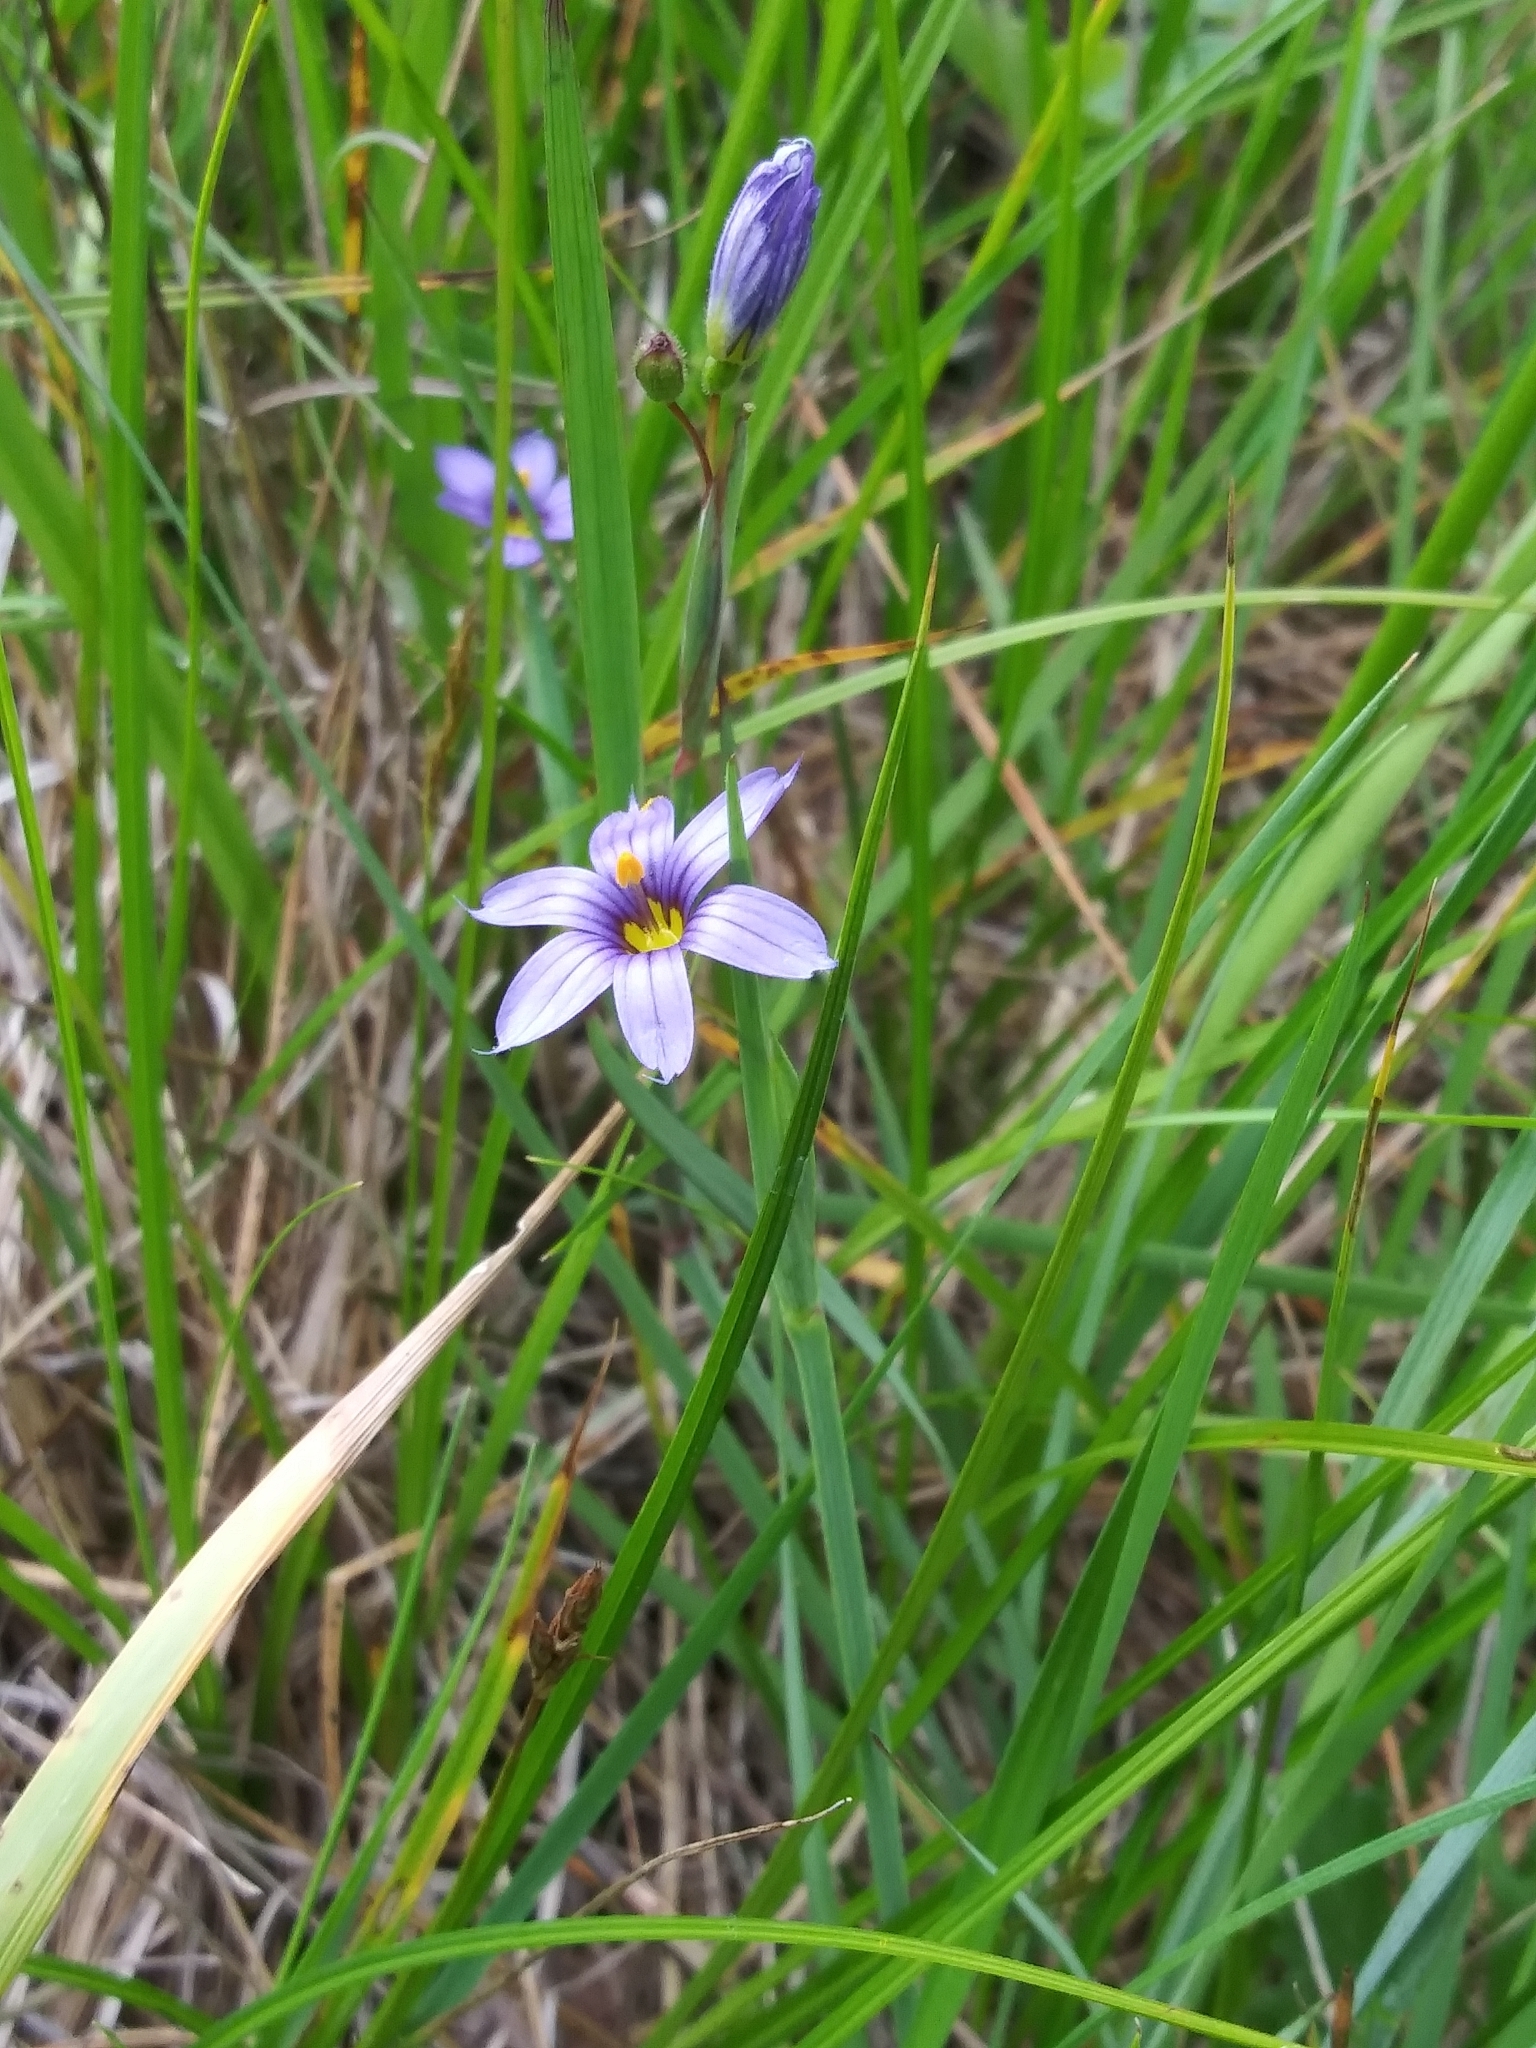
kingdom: Plantae
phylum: Tracheophyta
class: Liliopsida
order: Asparagales
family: Iridaceae
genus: Sisyrinchium
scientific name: Sisyrinchium bellum
